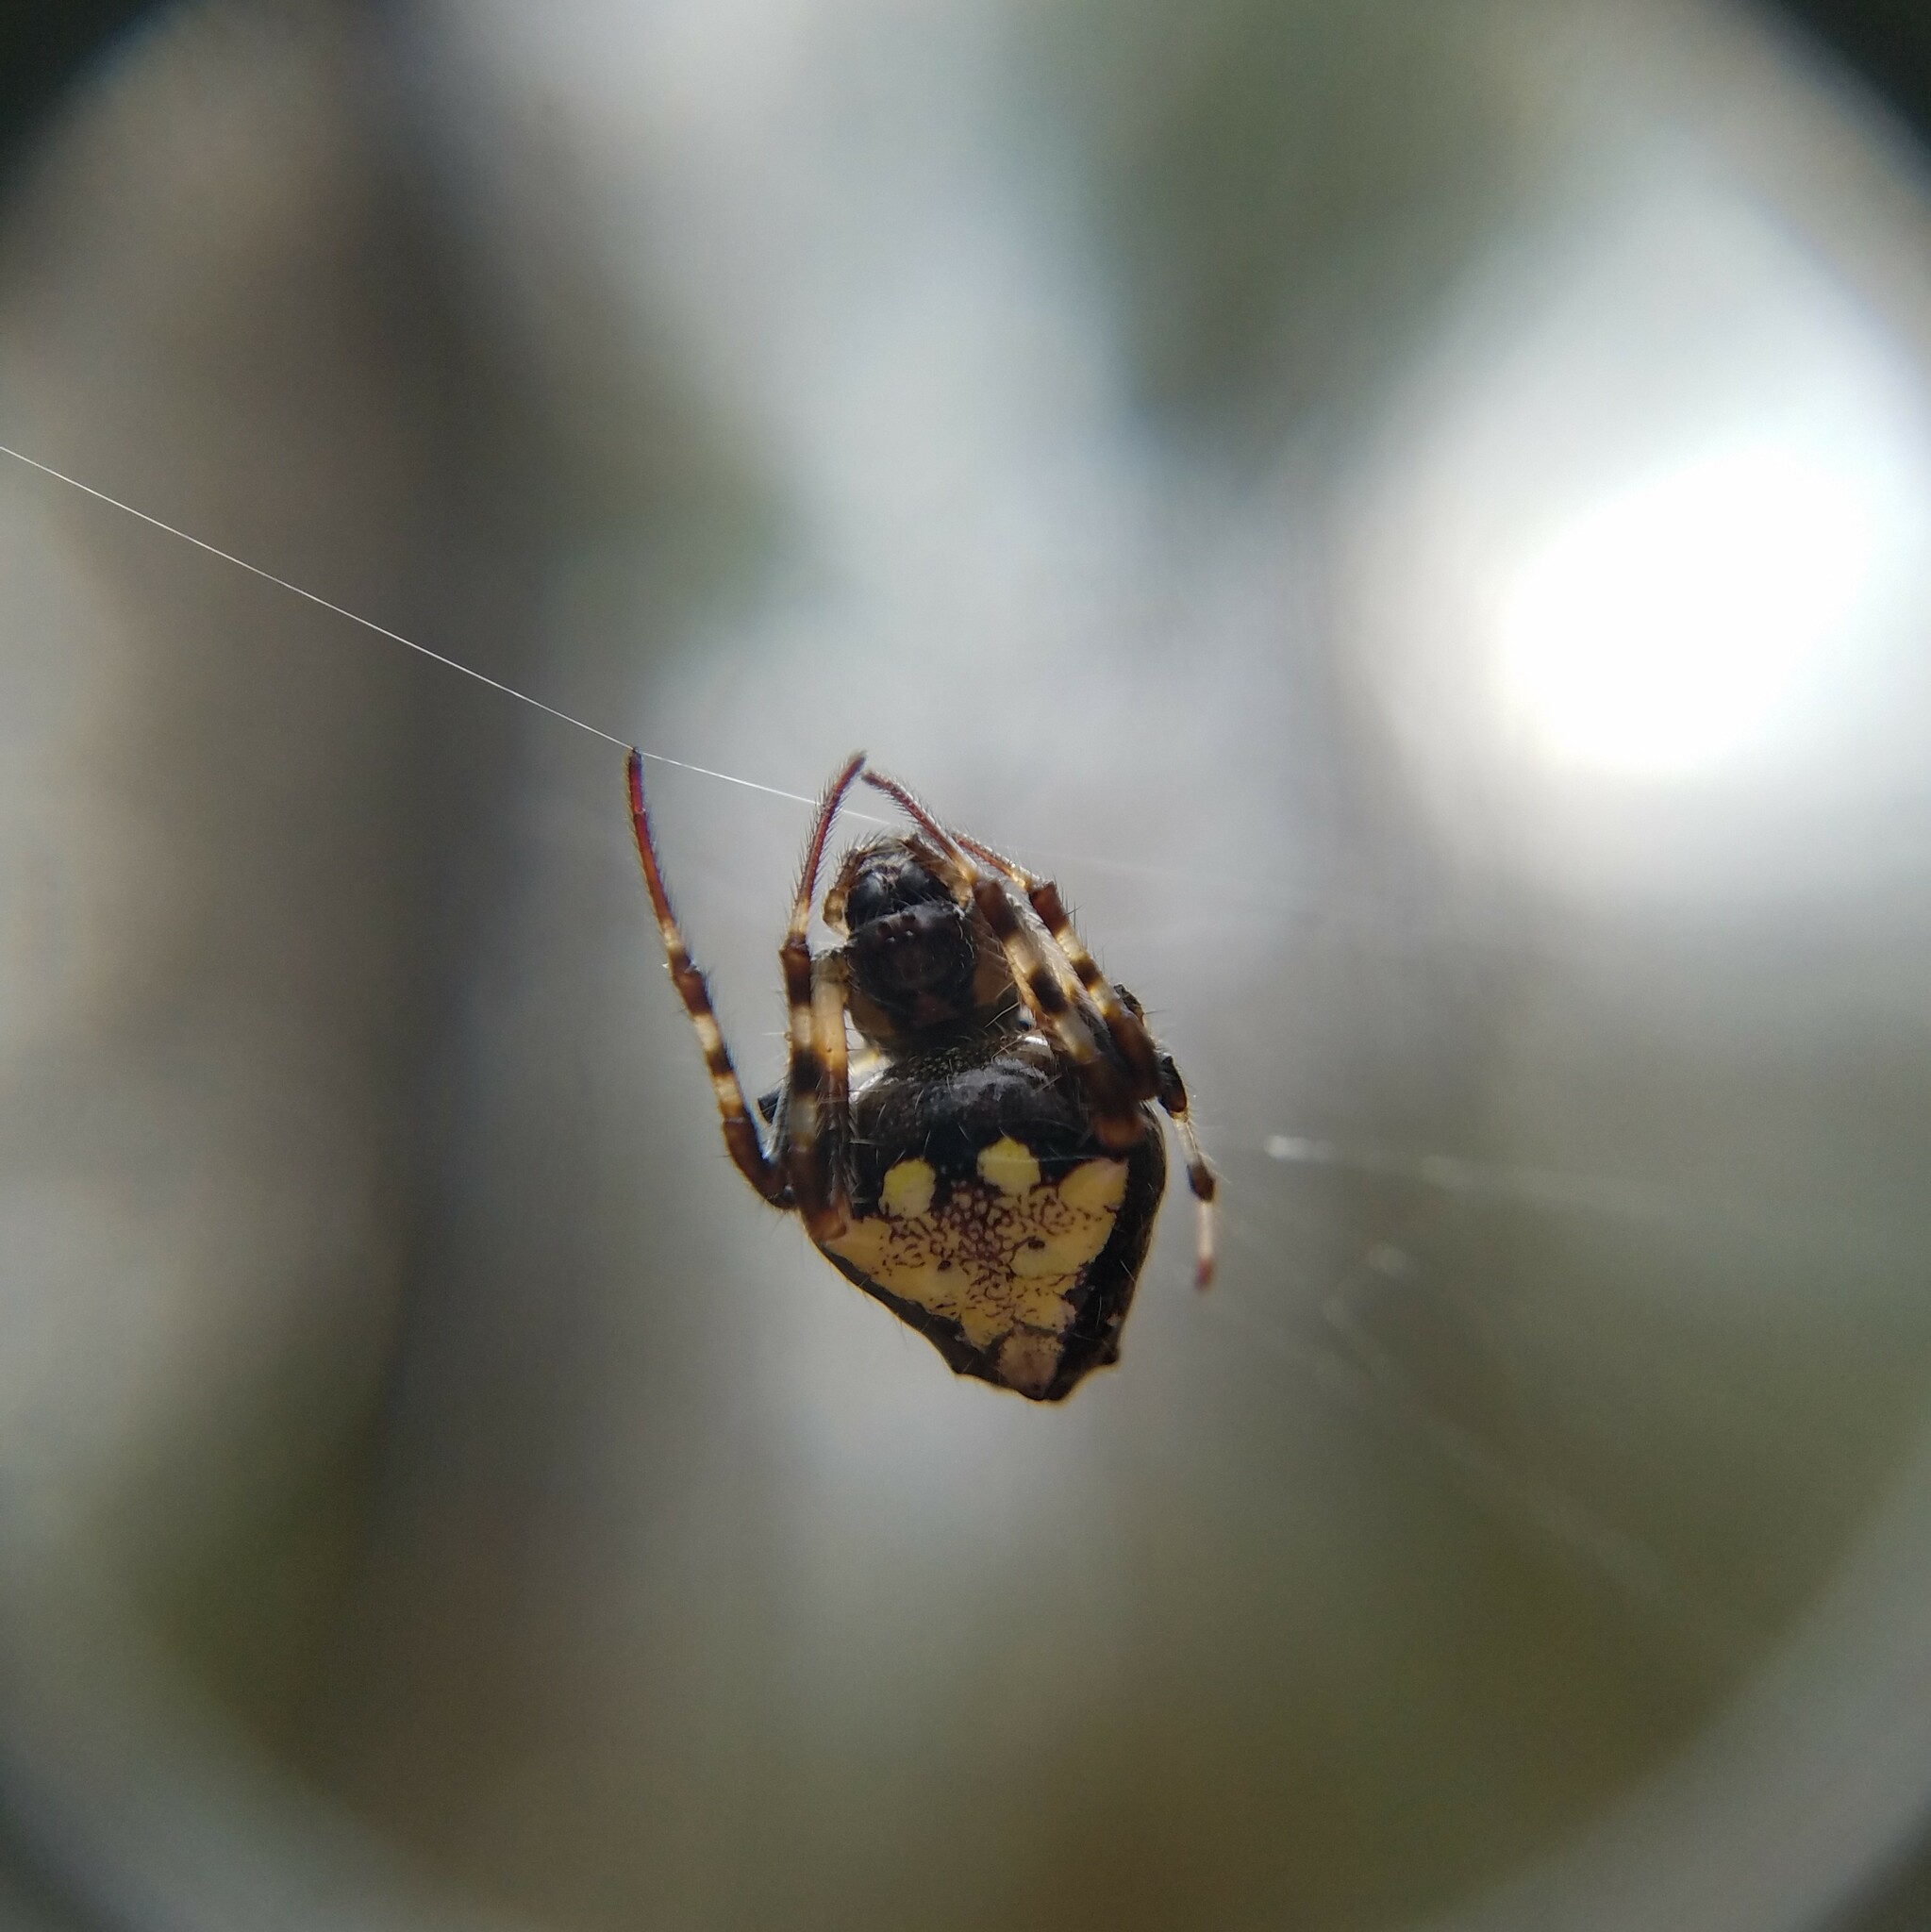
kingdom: Animalia
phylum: Arthropoda
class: Arachnida
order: Araneae
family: Araneidae
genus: Verrucosa
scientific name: Verrucosa arenata
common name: Orb weavers
